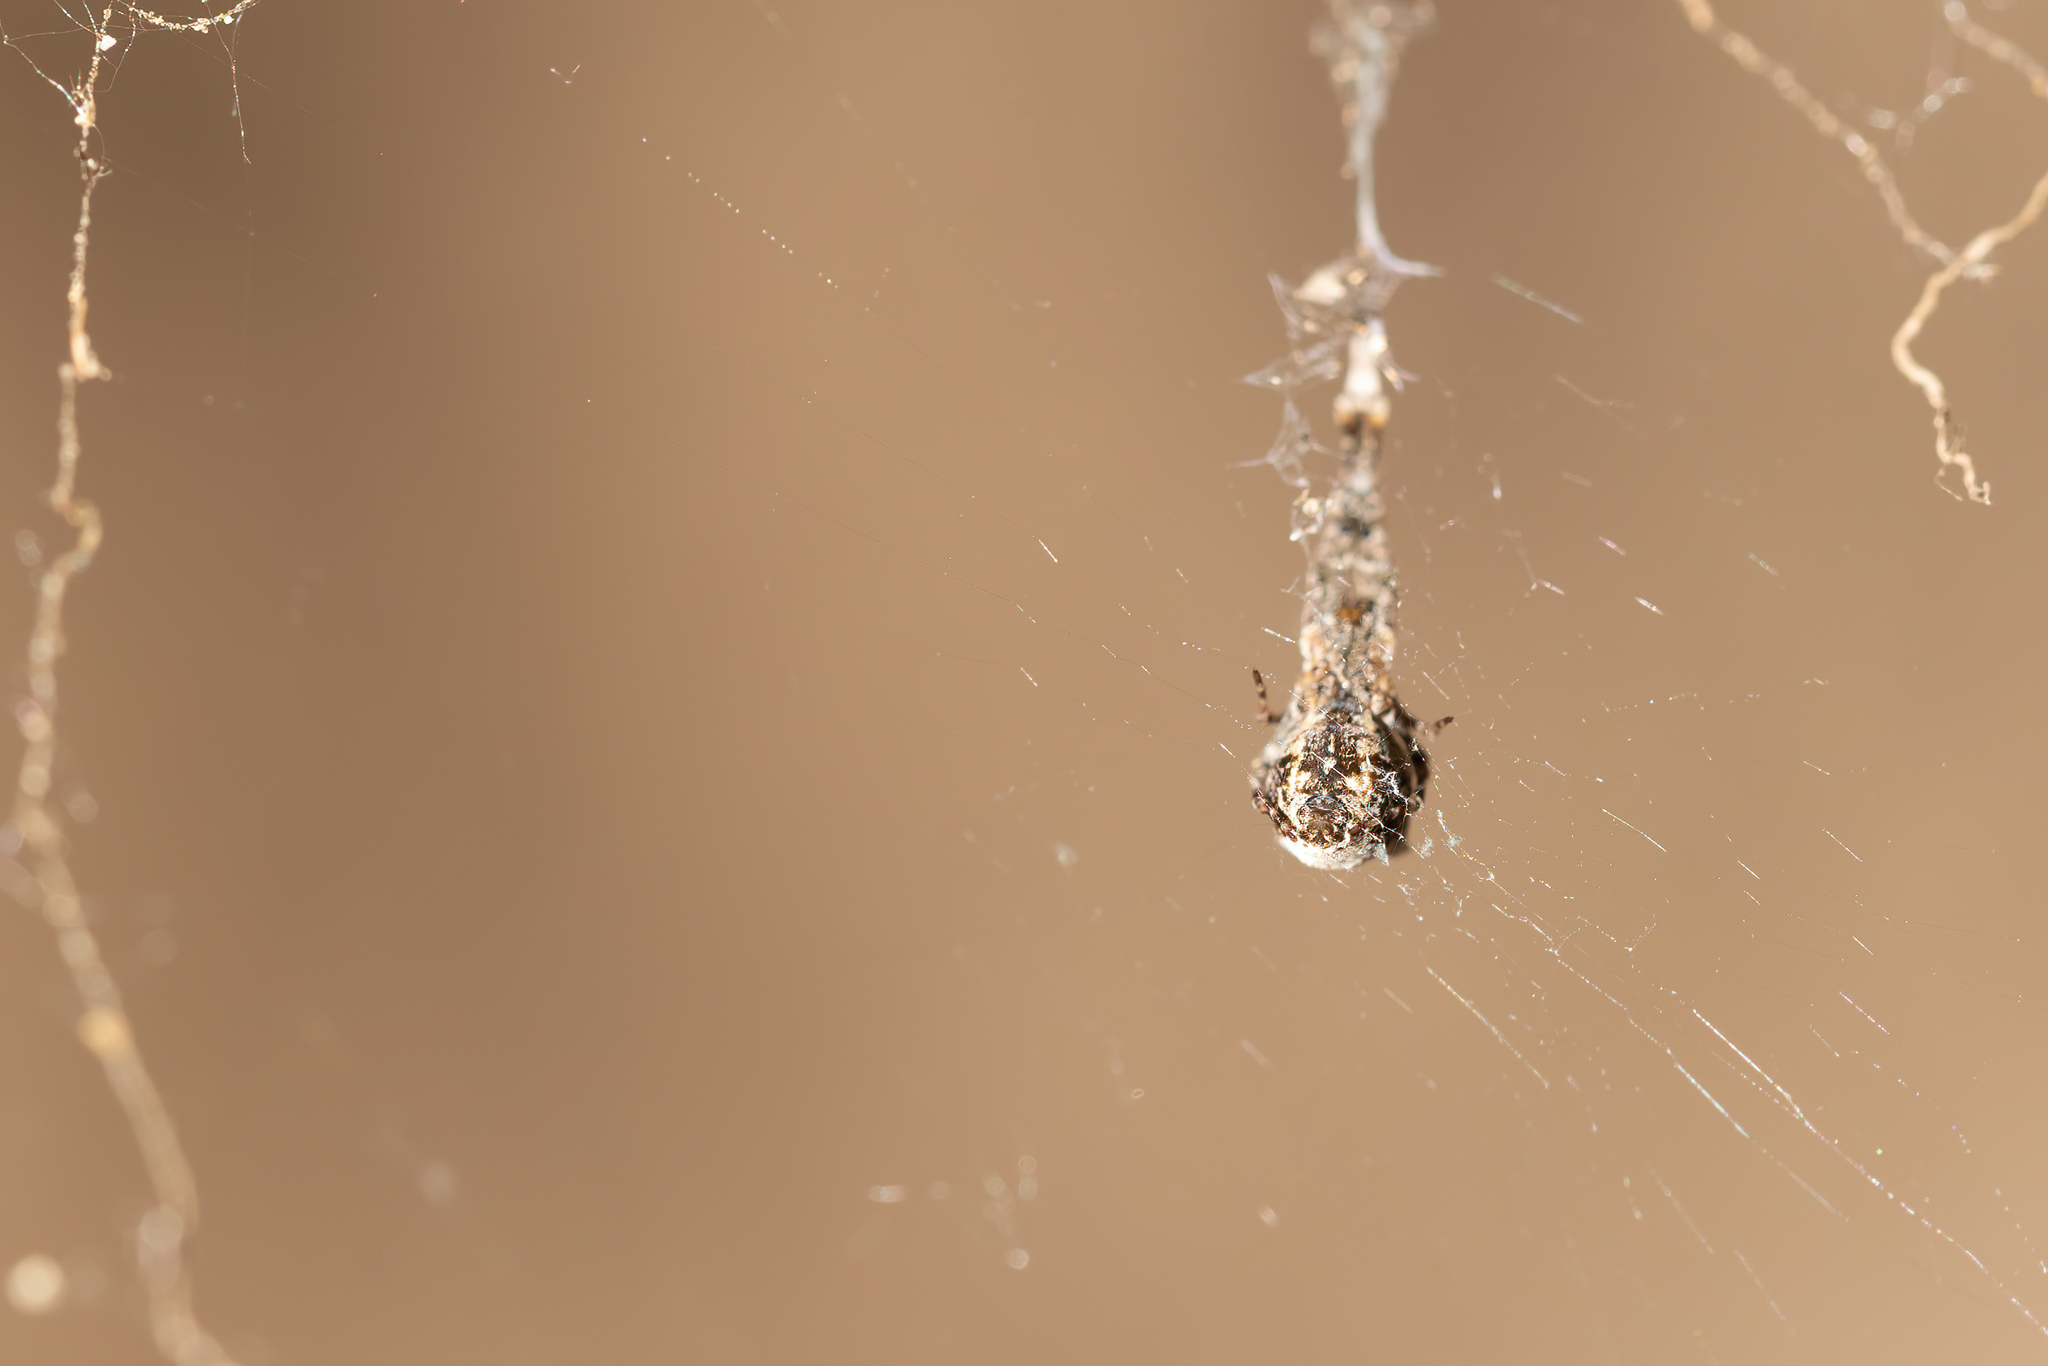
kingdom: Animalia
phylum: Arthropoda
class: Arachnida
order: Araneae
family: Araneidae
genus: Cyclosa
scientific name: Cyclosa conica
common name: Conical trashline orbweaver
